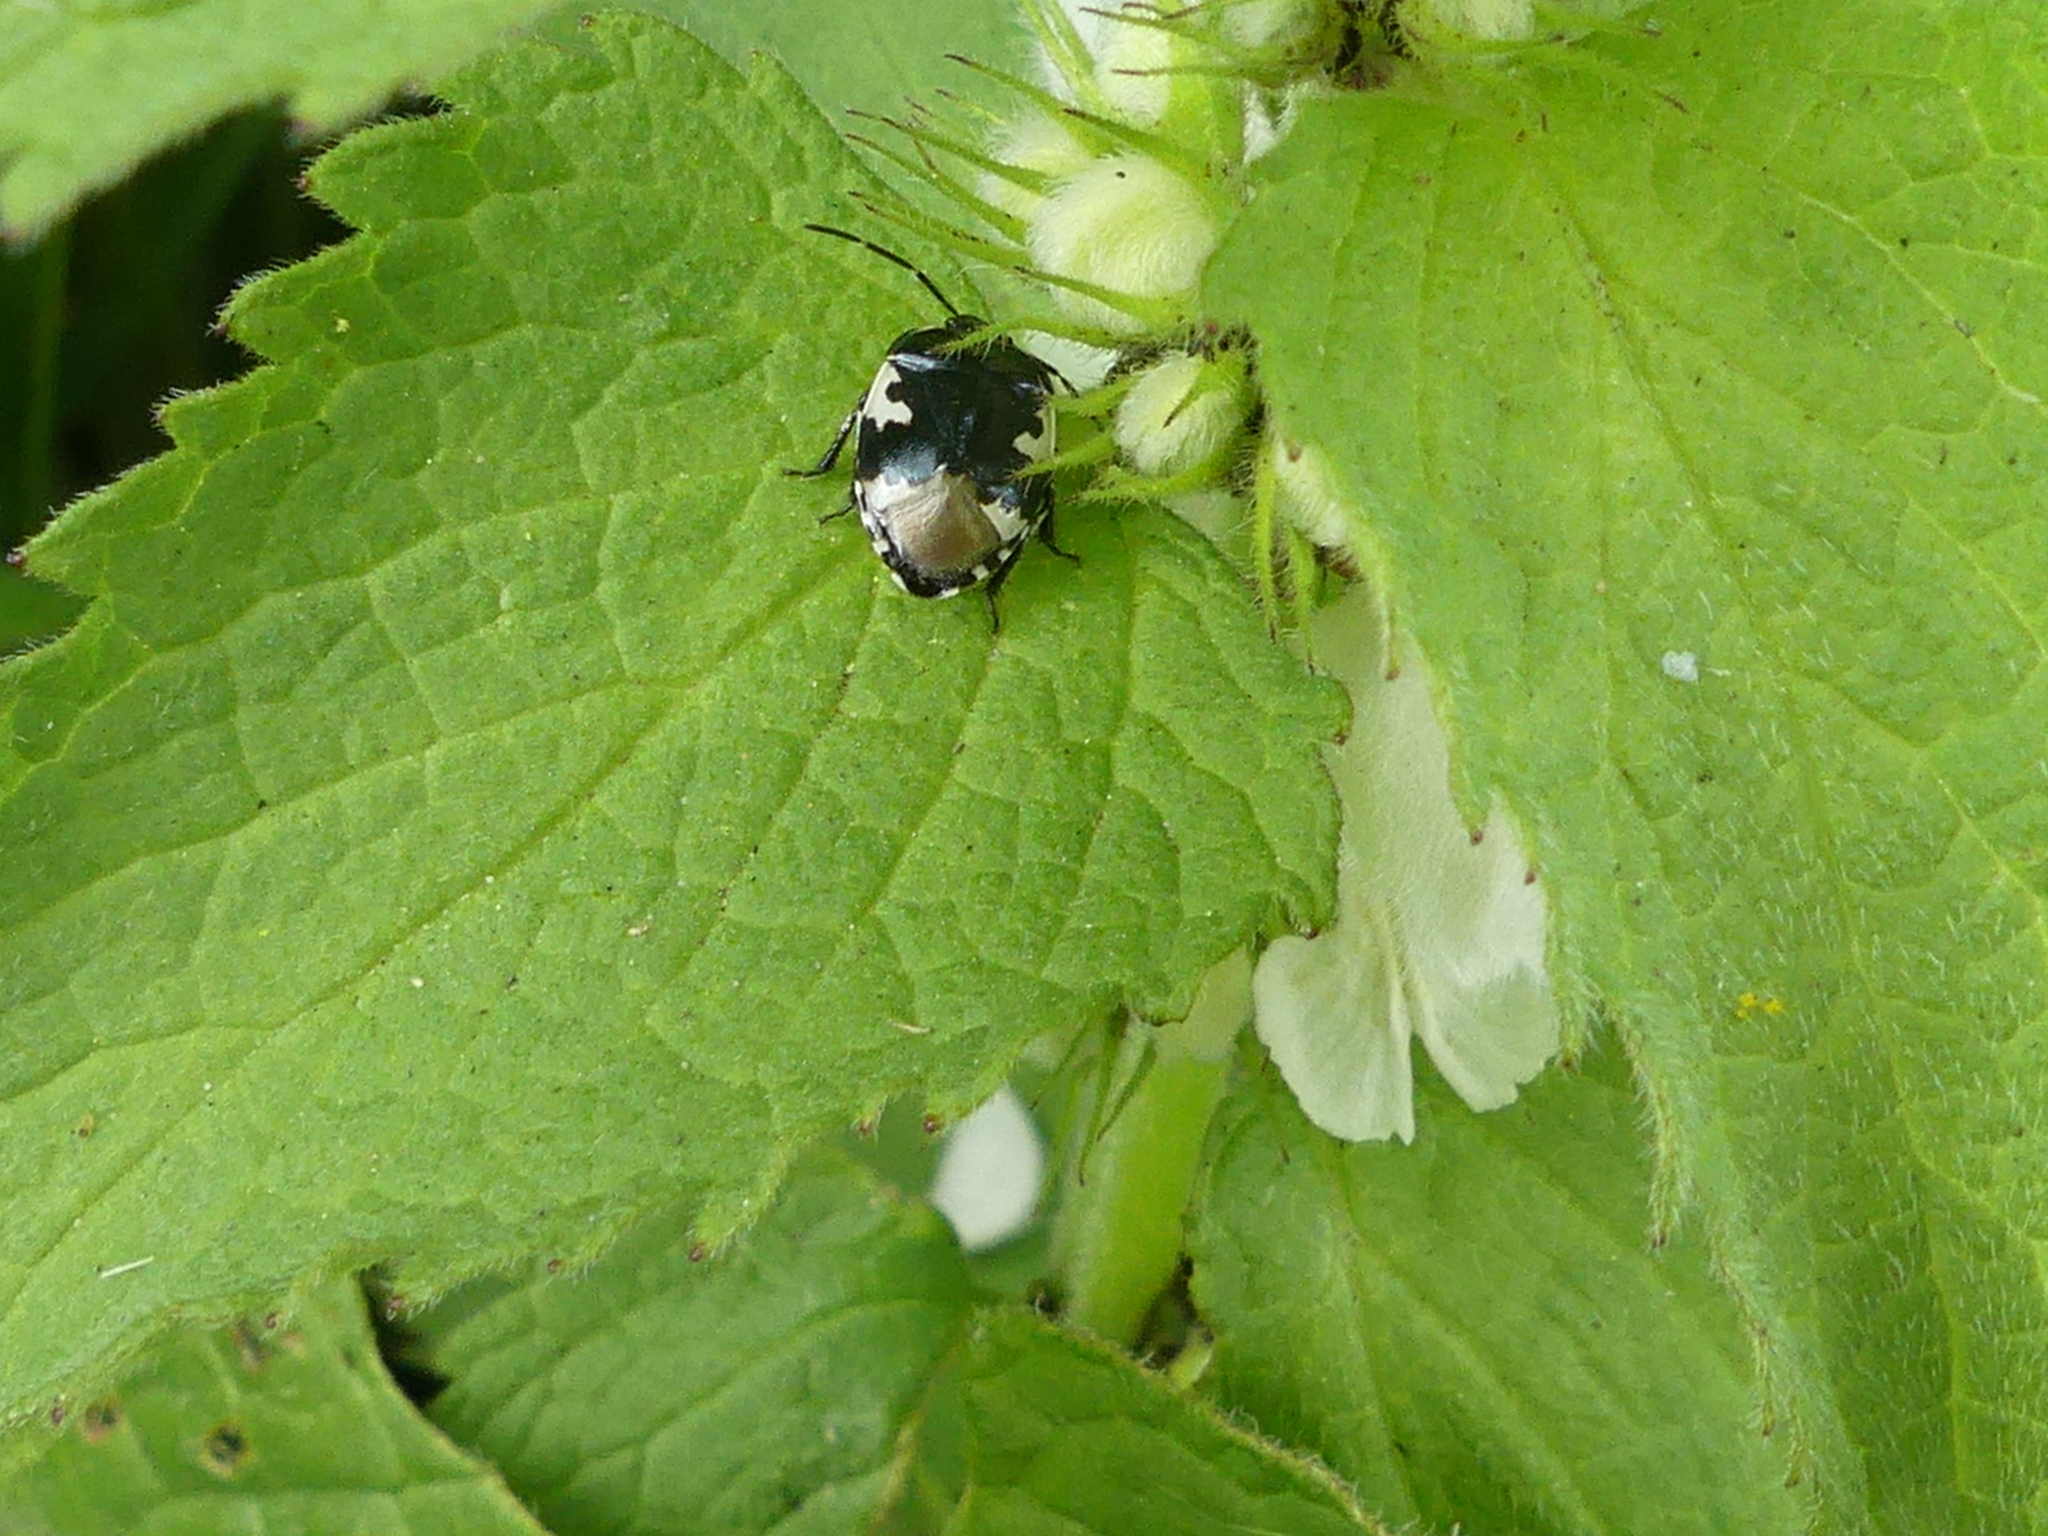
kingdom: Animalia
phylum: Arthropoda
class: Insecta
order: Hemiptera
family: Cydnidae
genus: Tritomegas
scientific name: Tritomegas bicolor
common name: Pied shieldbug
